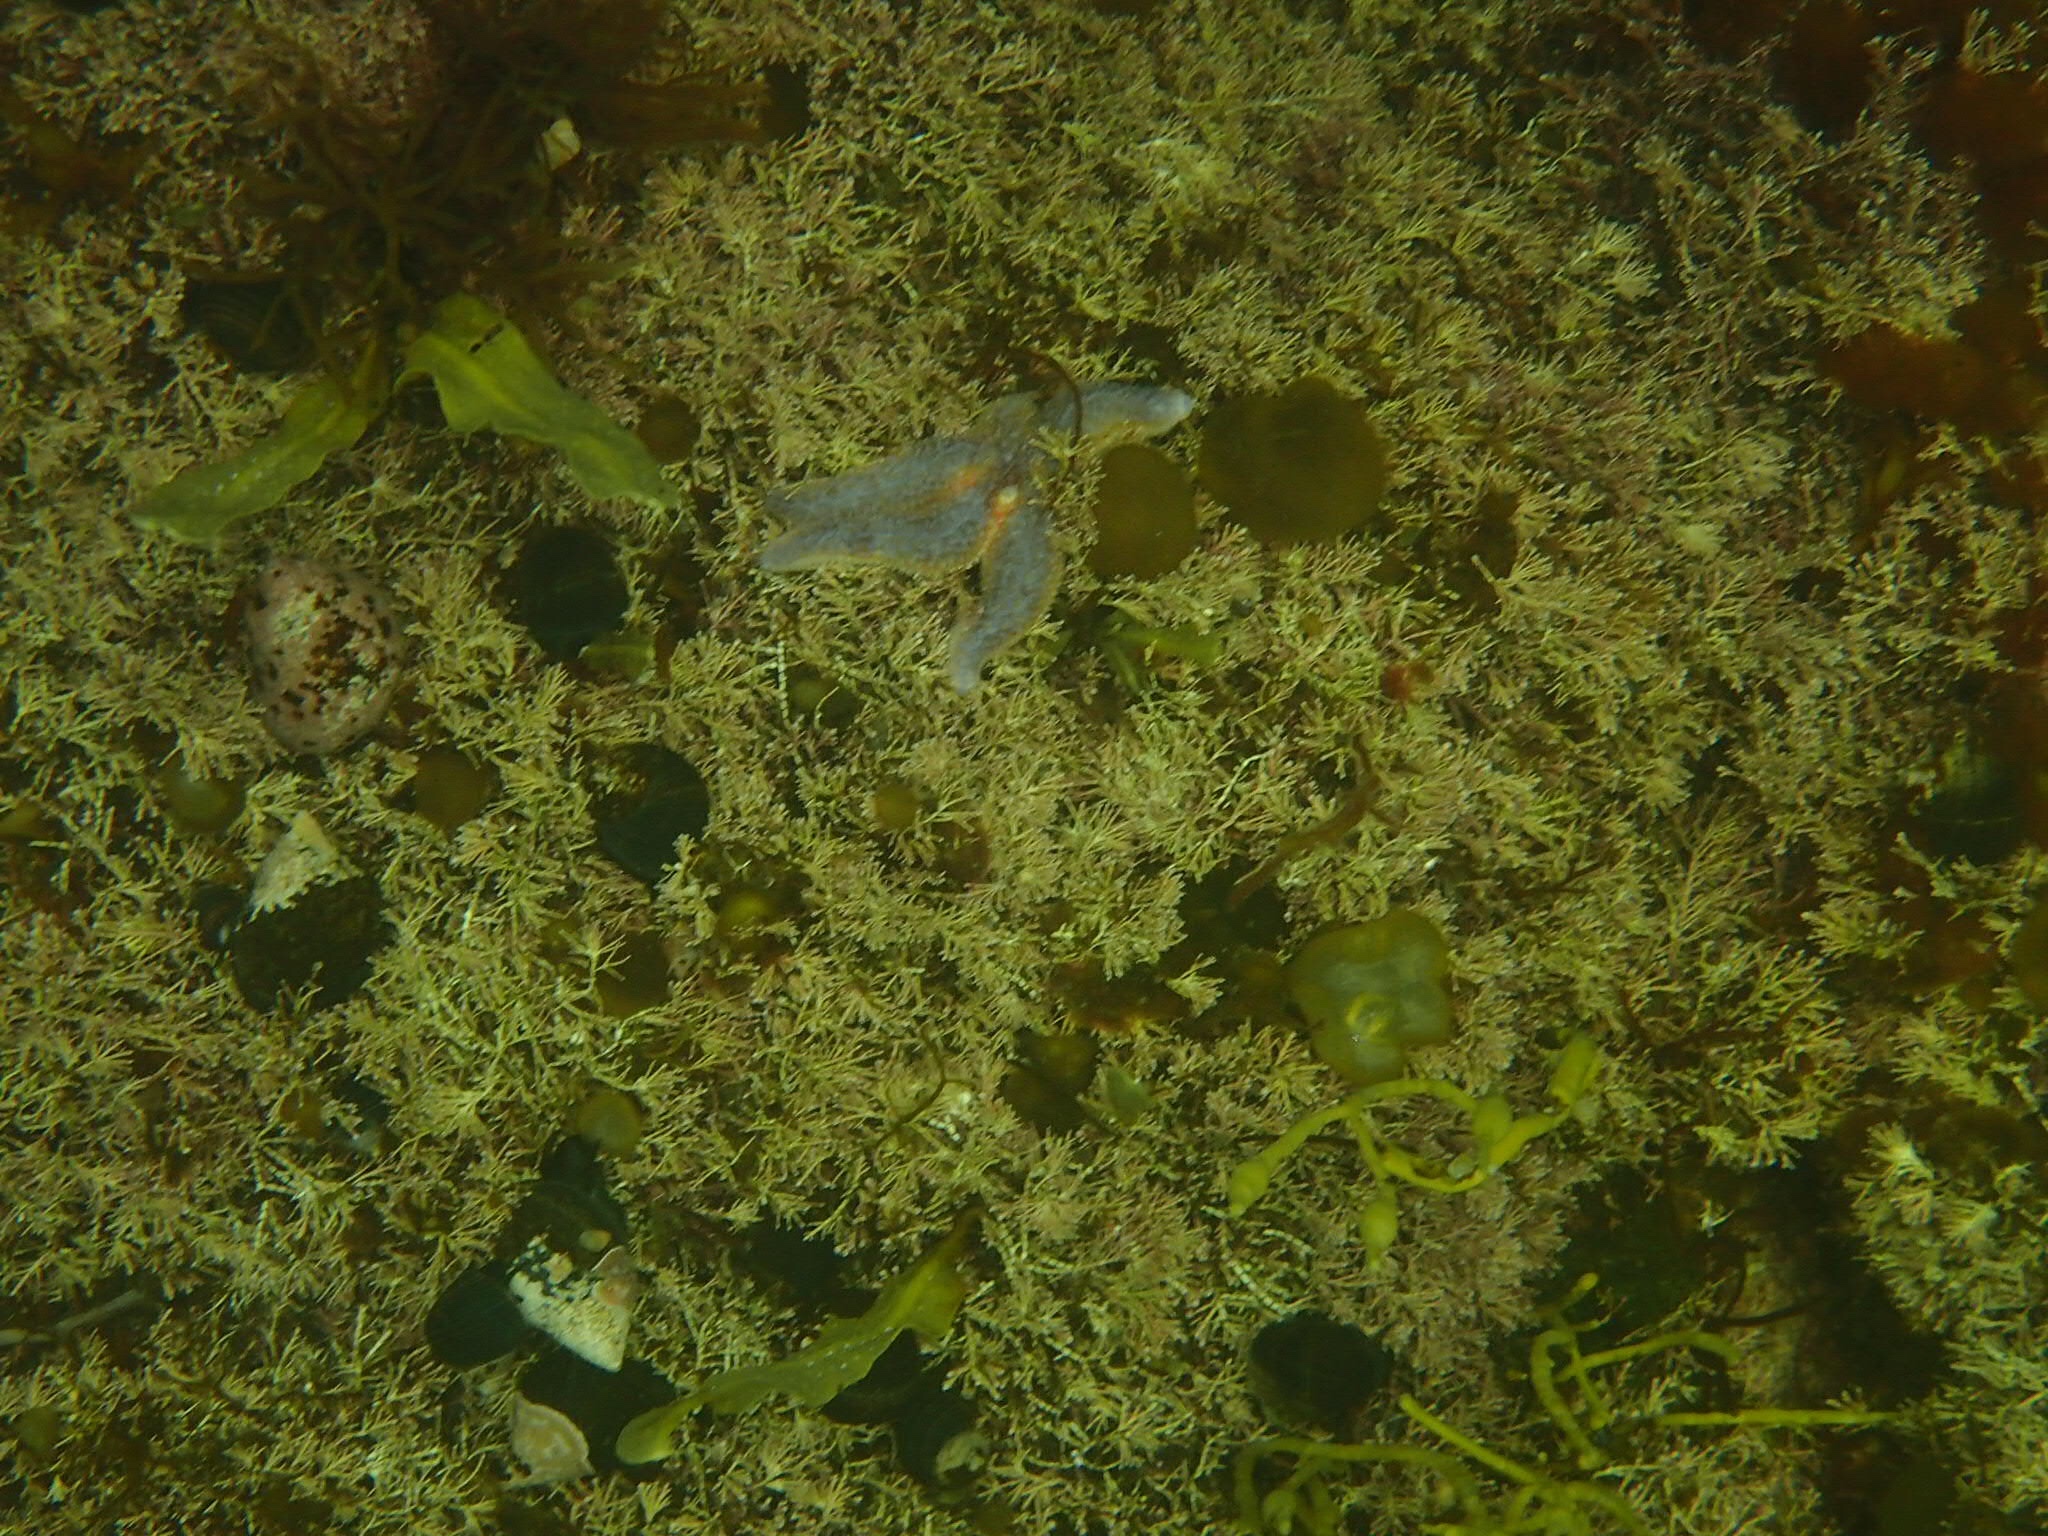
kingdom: Chromista
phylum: Ochrophyta
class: Phaeophyceae
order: Scytosiphonales
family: Scytosiphonaceae
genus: Colpomenia
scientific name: Colpomenia peregrina
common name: Oyster thief
